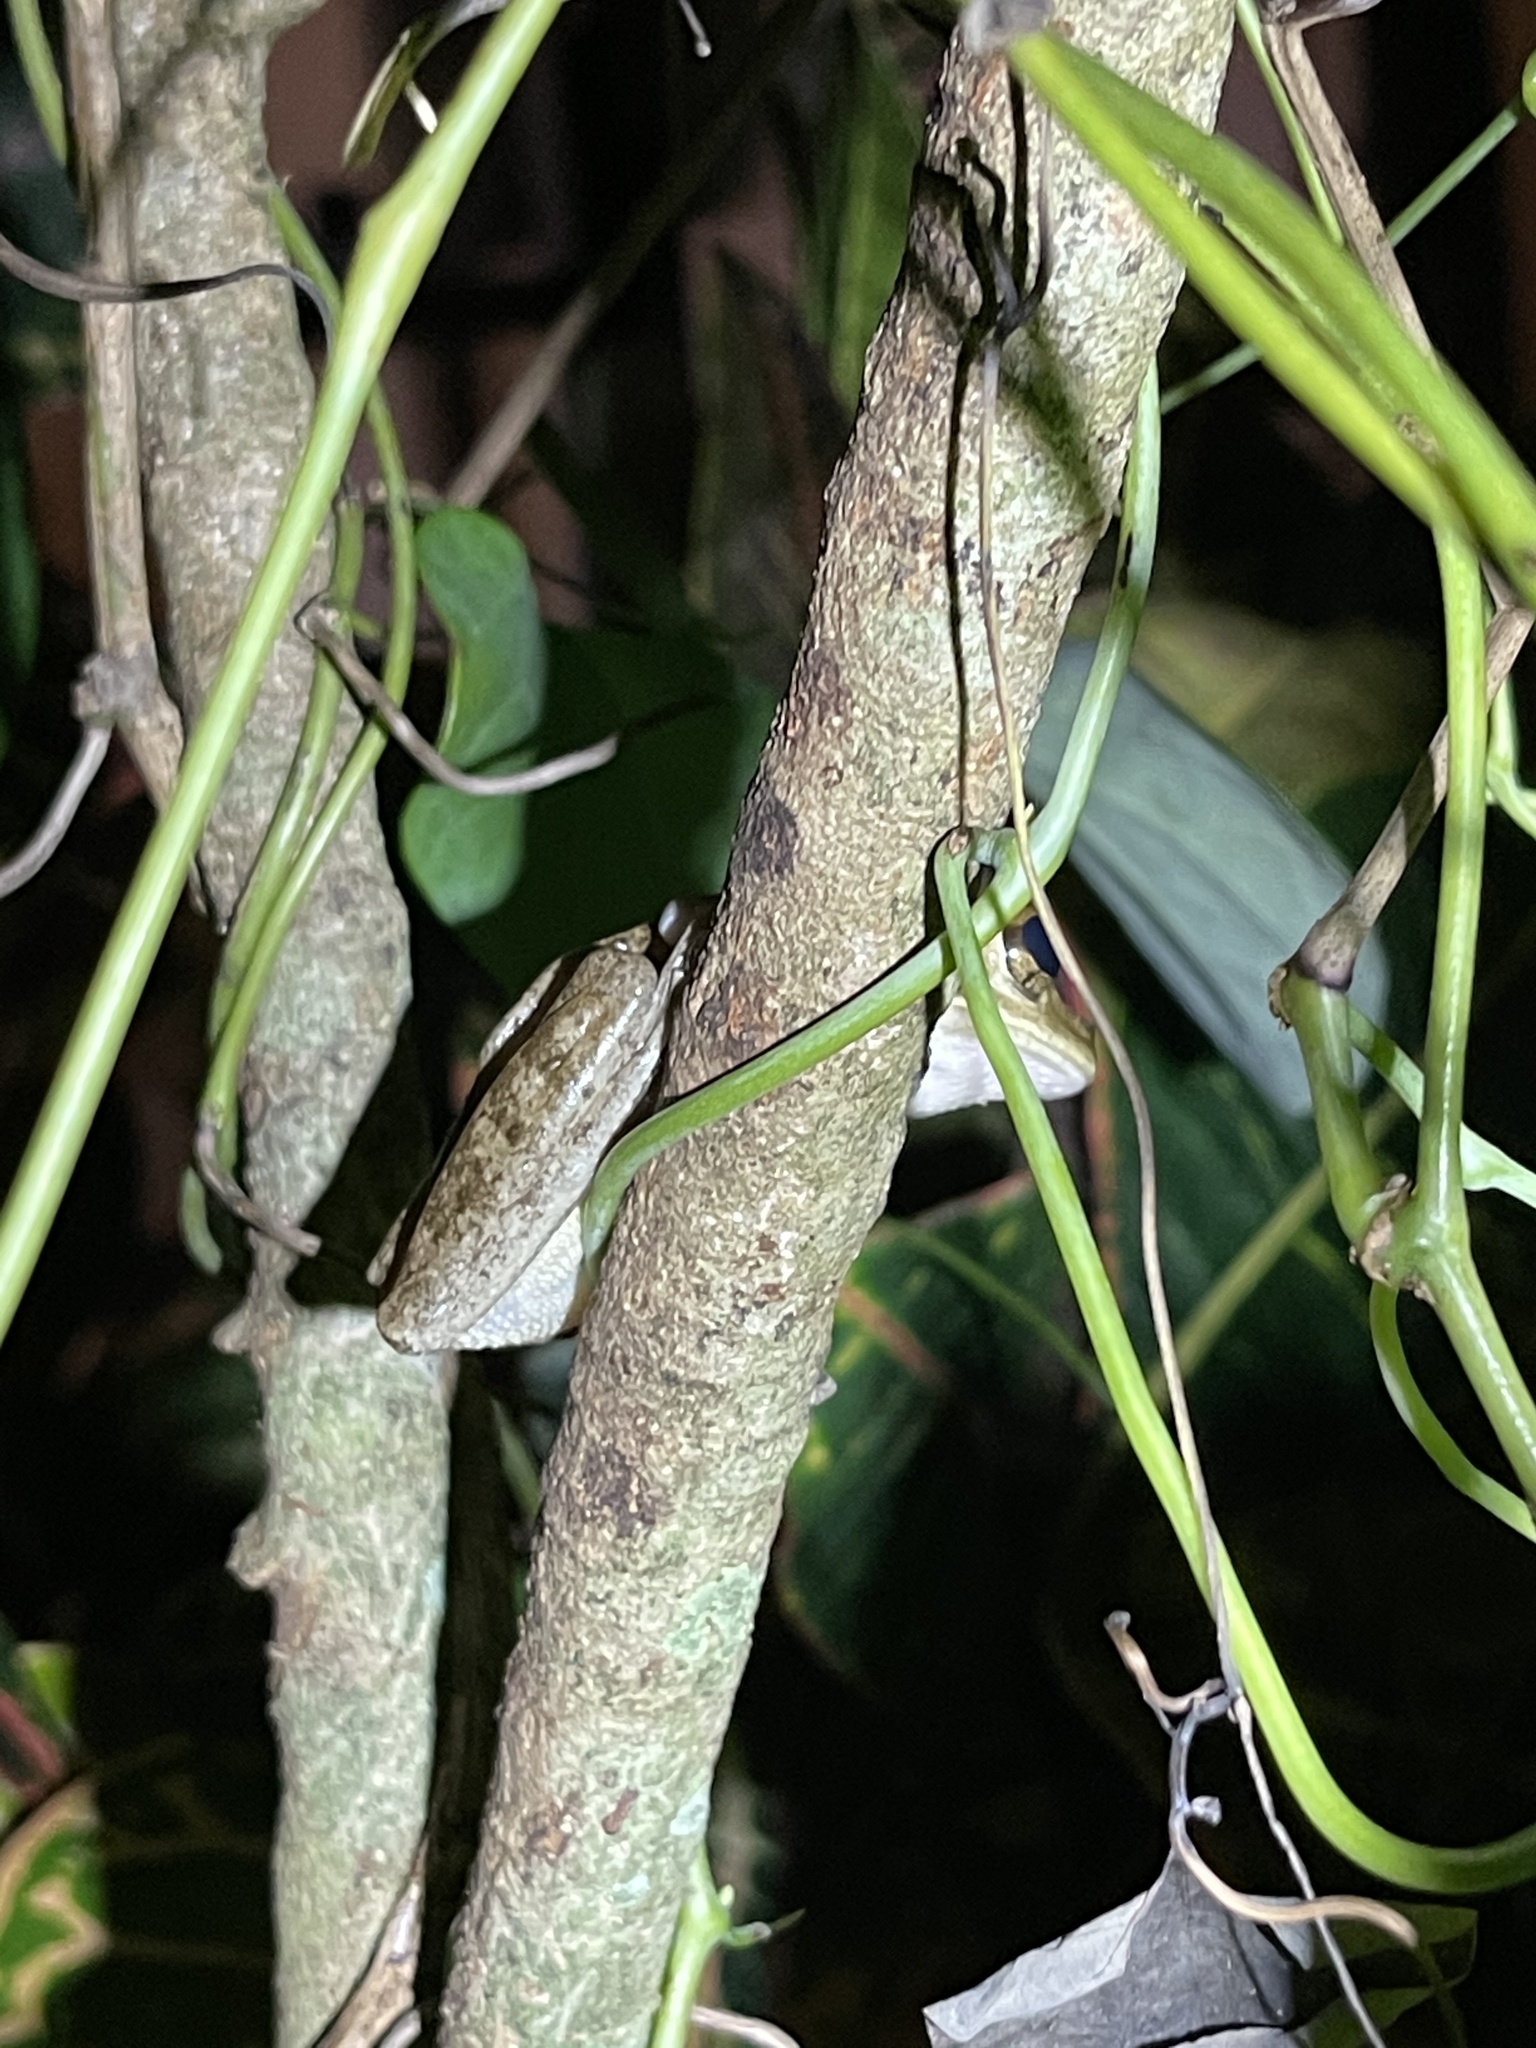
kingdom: Animalia
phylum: Chordata
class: Amphibia
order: Anura
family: Hylidae
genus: Osteopilus
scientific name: Osteopilus septentrionalis
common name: Cuban treefrog
